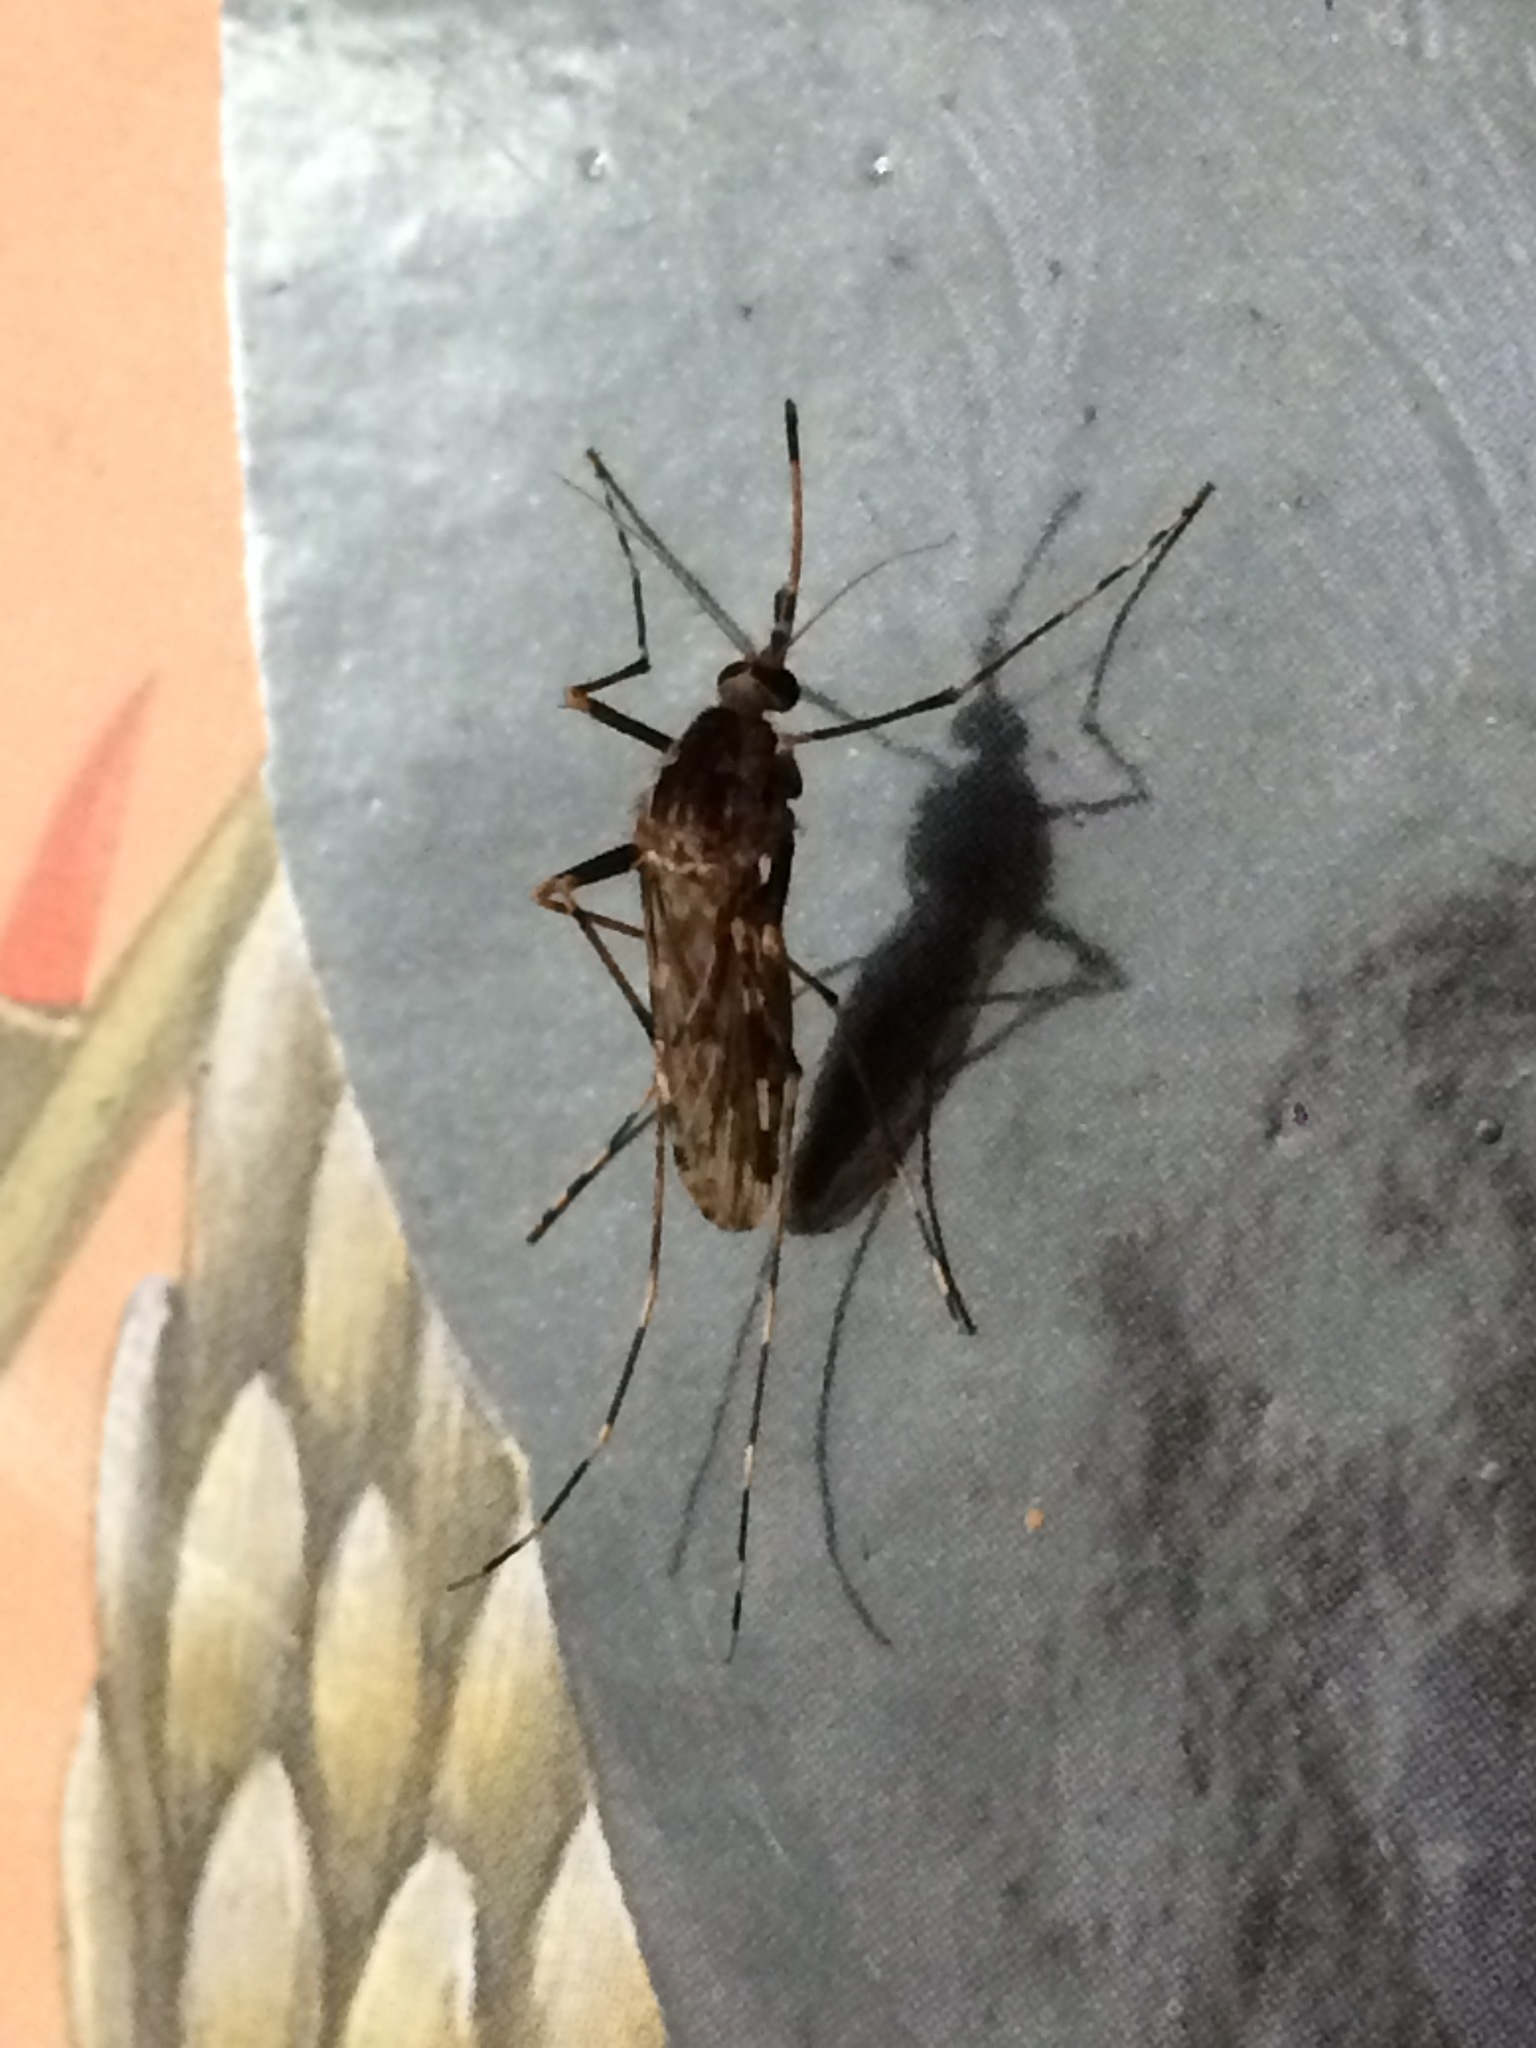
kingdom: Animalia
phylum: Arthropoda
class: Insecta
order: Diptera
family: Culicidae
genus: Lutzia
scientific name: Lutzia bigoti
